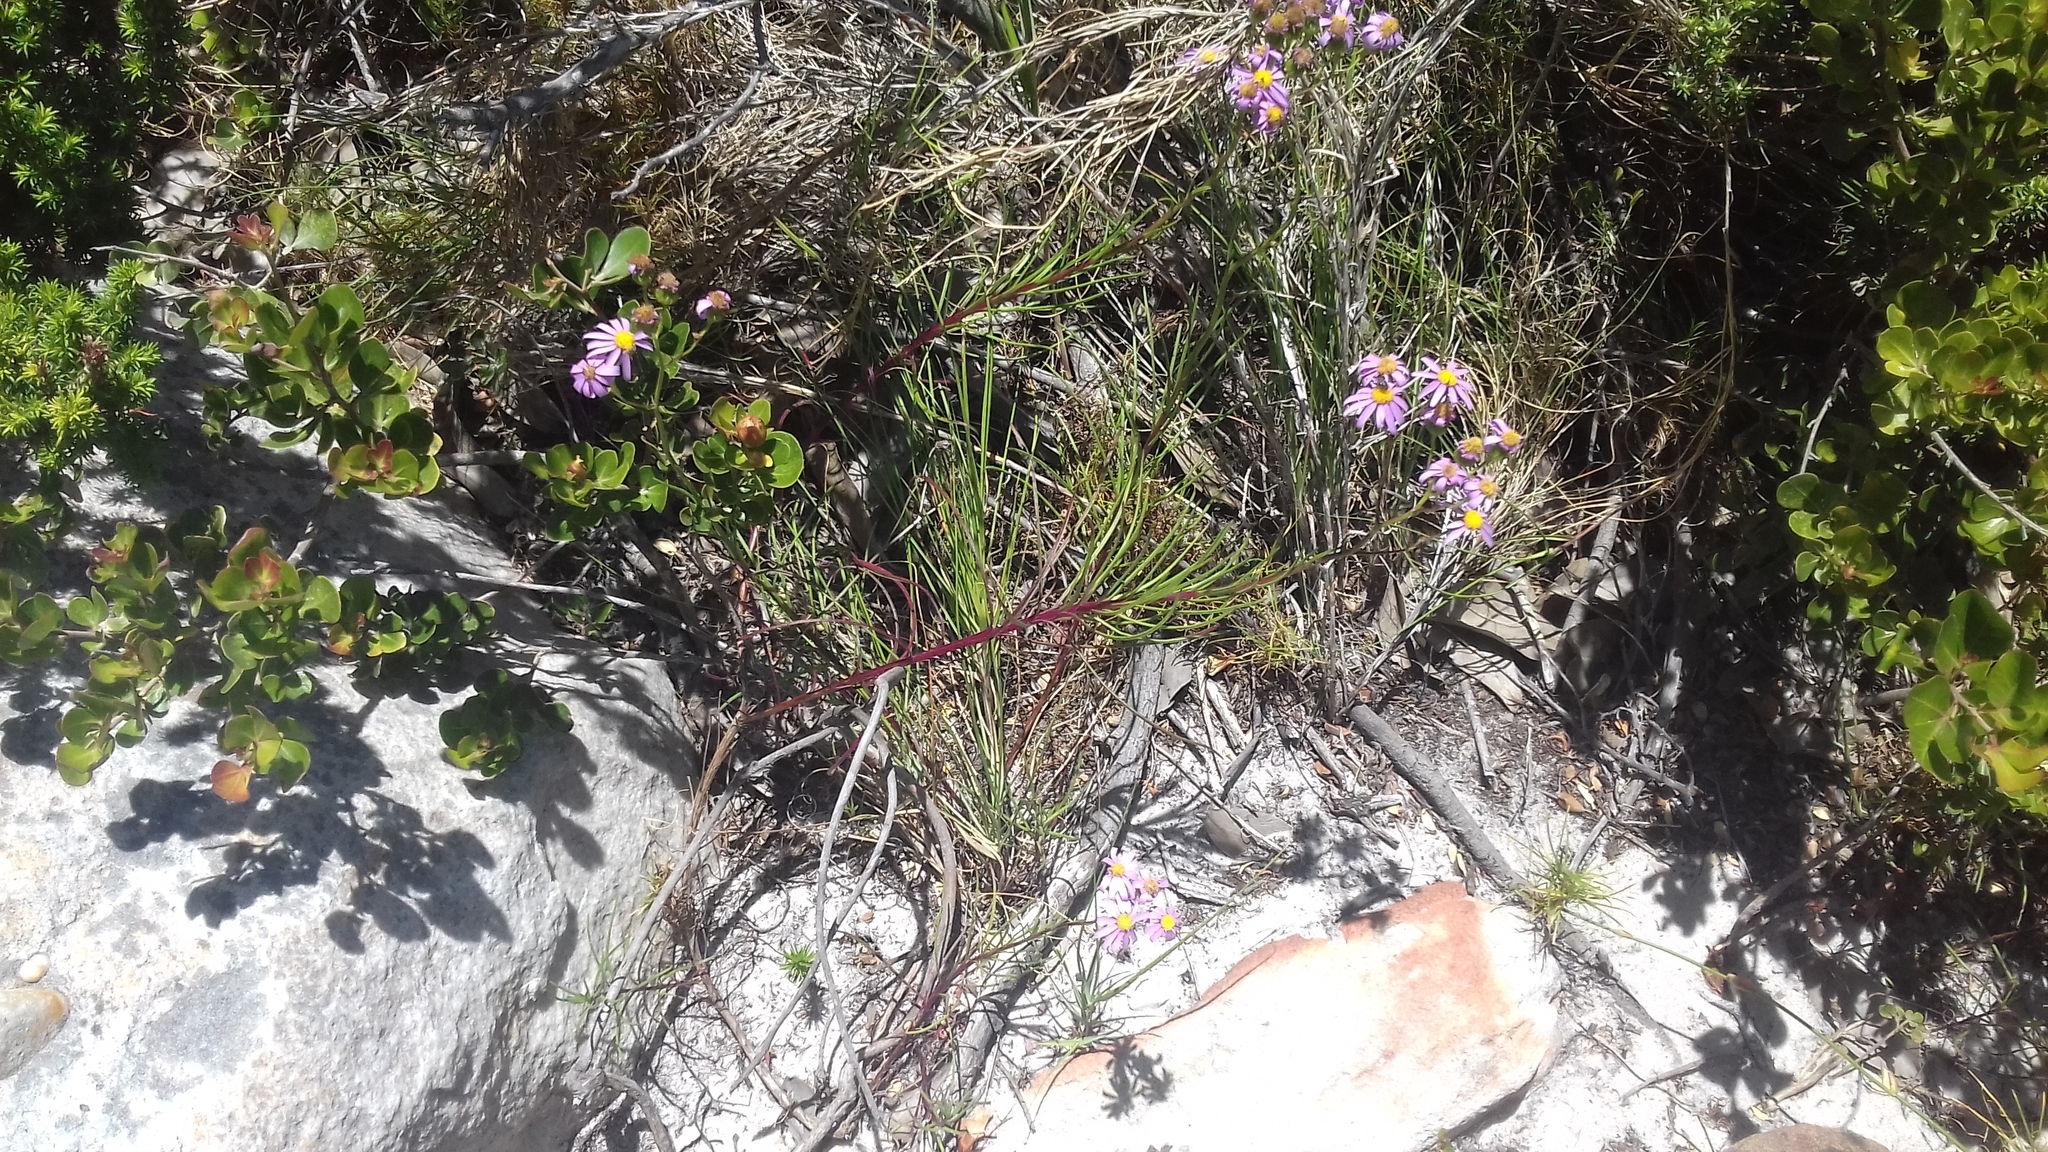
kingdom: Plantae
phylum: Tracheophyta
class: Magnoliopsida
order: Asterales
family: Asteraceae
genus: Senecio
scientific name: Senecio umbellatus
